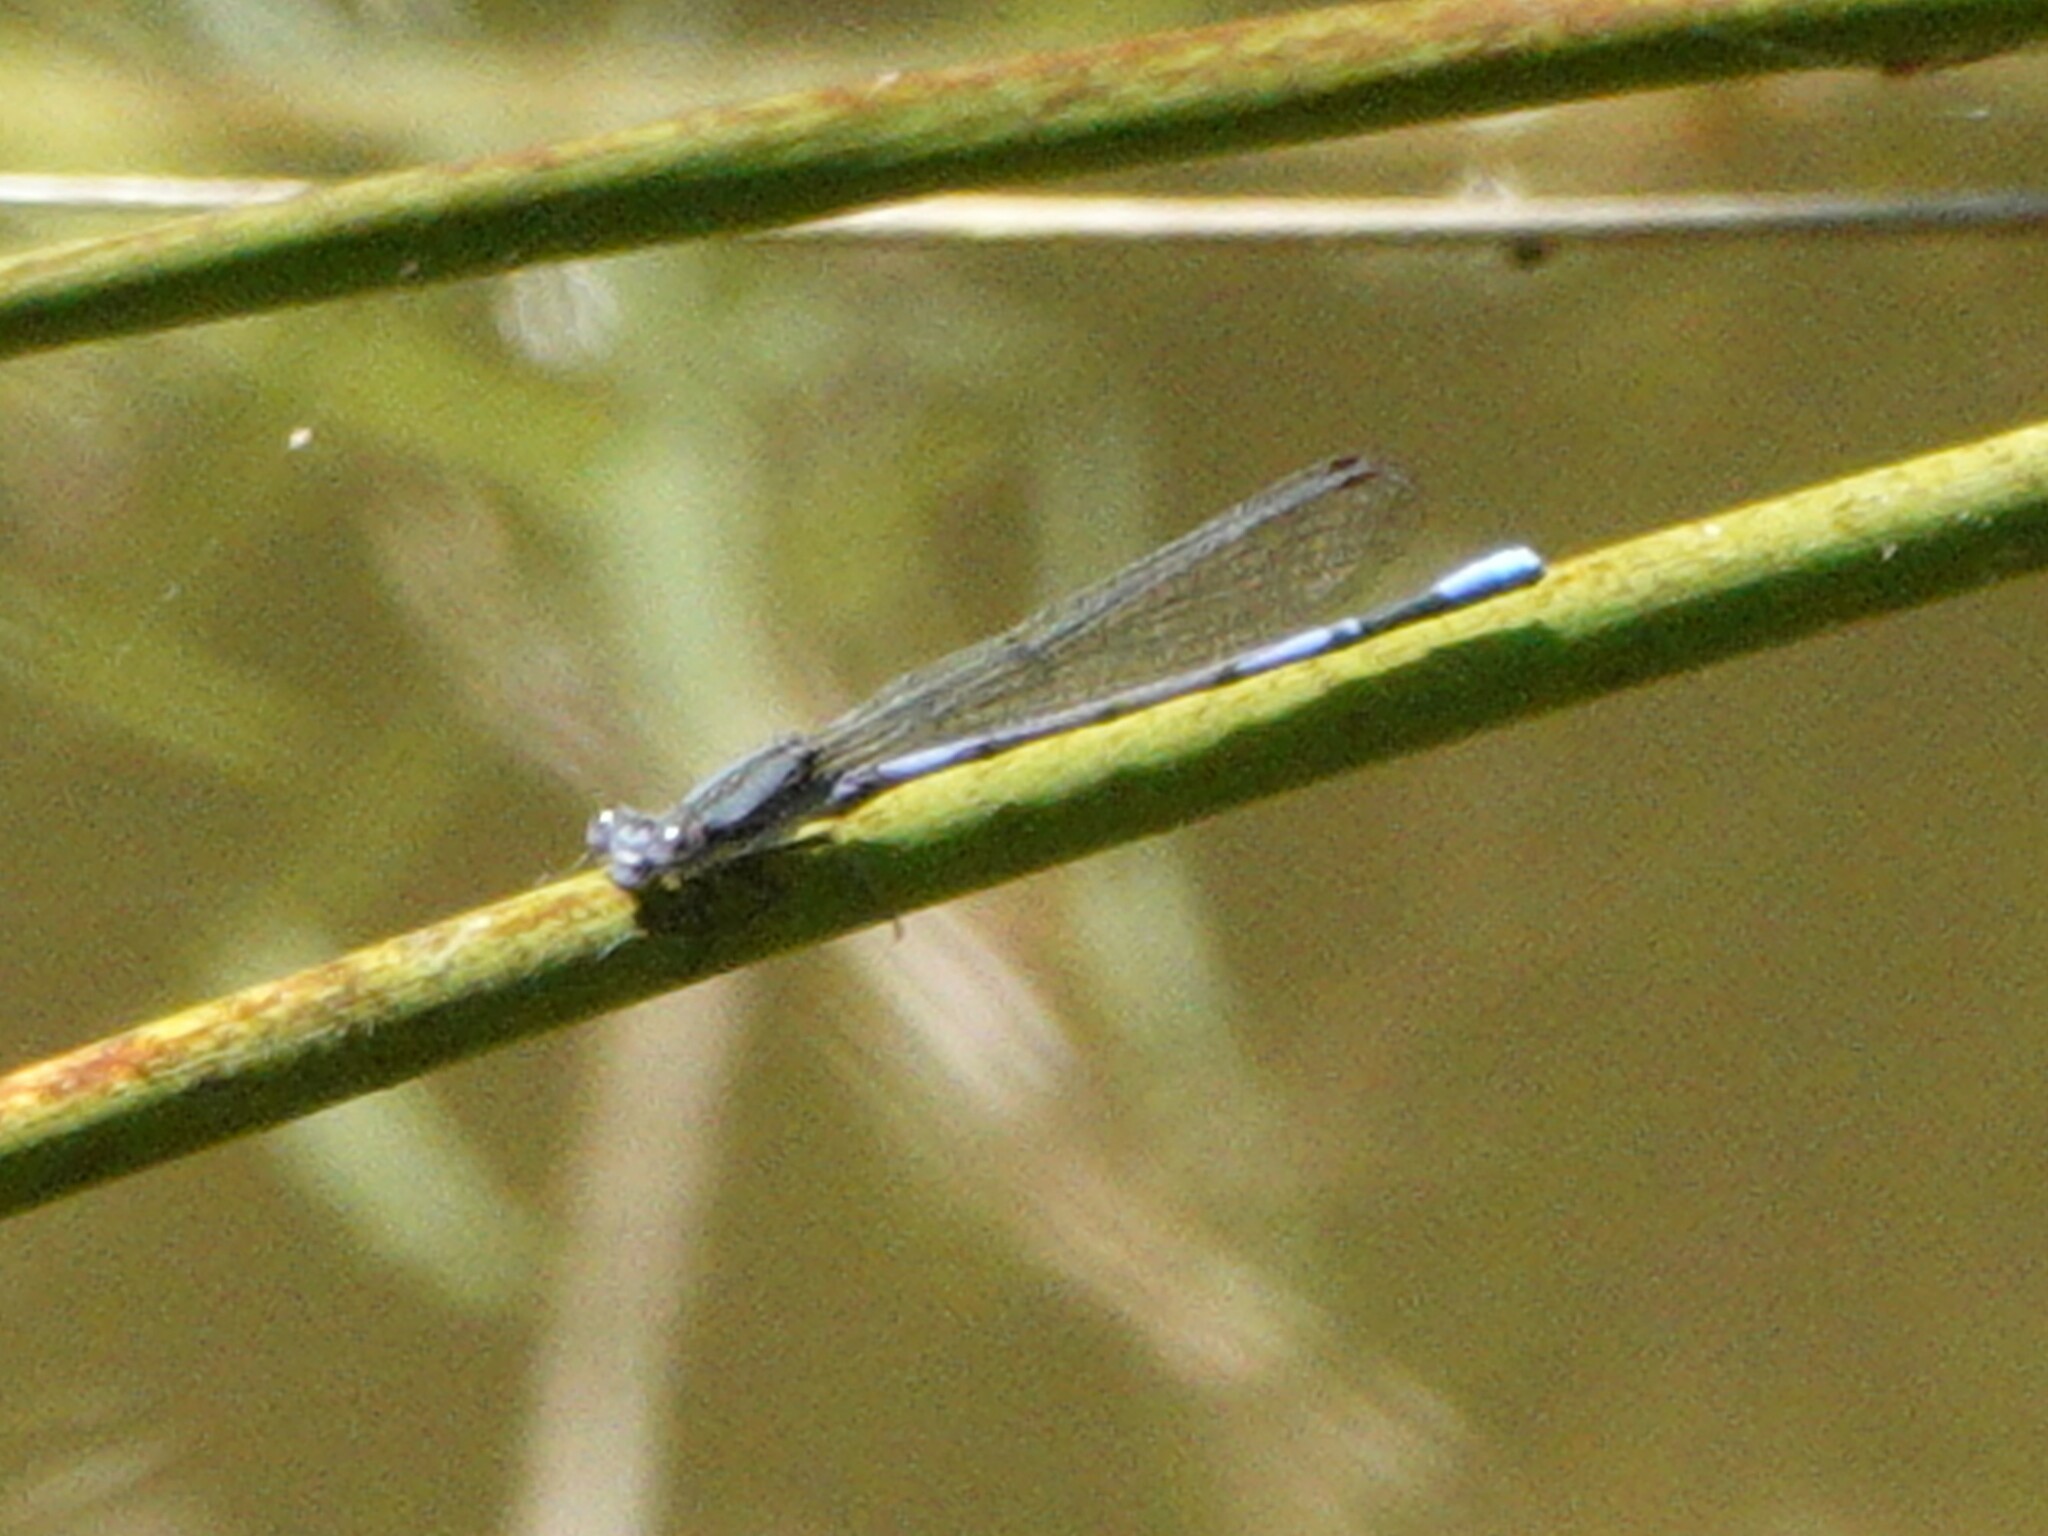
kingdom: Animalia
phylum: Arthropoda
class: Insecta
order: Odonata
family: Coenagrionidae
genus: Argia
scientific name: Argia fumipennis
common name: Variable dancer
